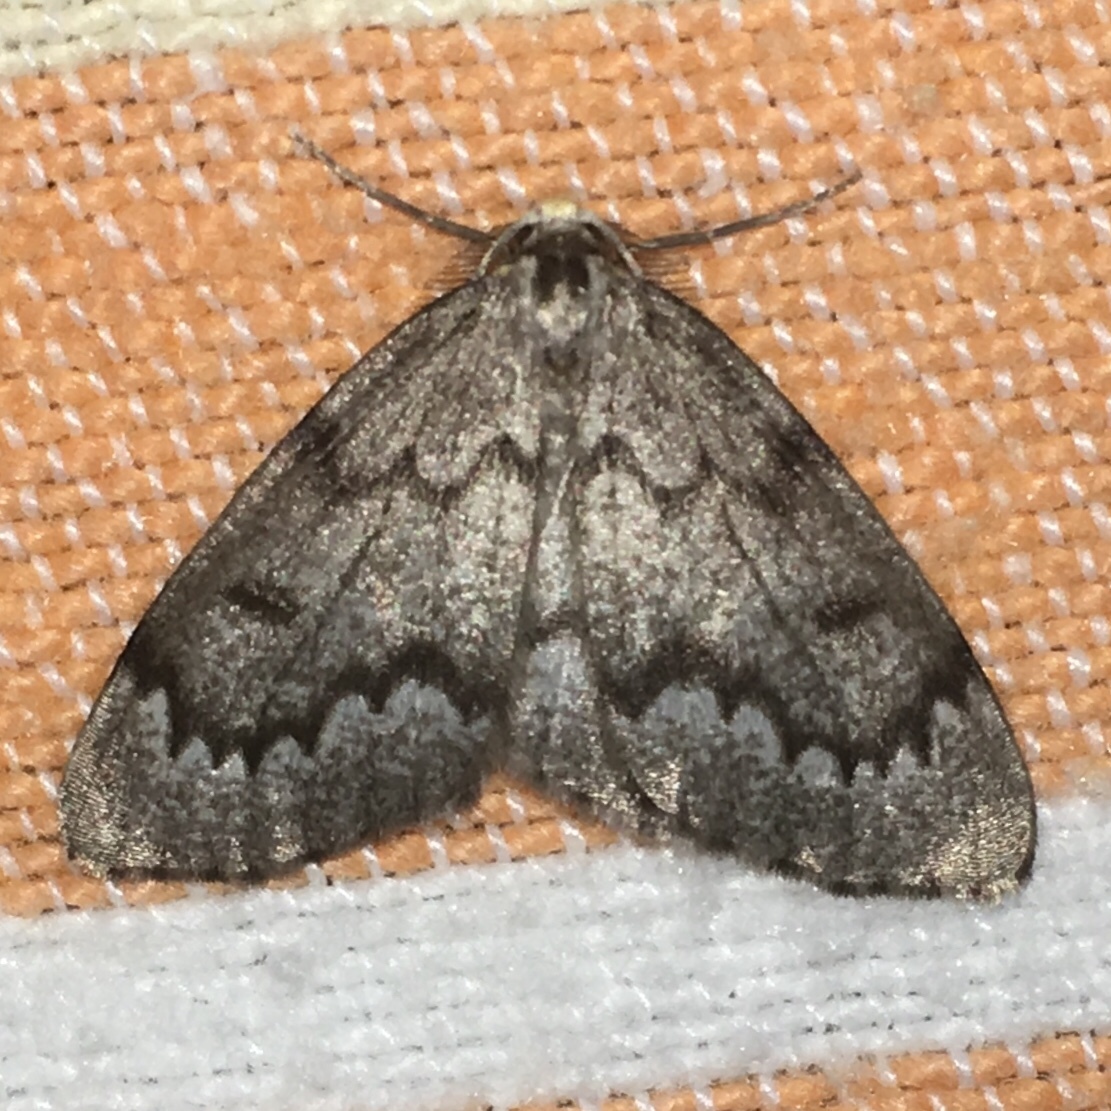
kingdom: Animalia
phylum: Arthropoda
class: Insecta
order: Lepidoptera
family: Geometridae
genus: Nepytia
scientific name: Nepytia canosaria
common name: False hemlock looper
